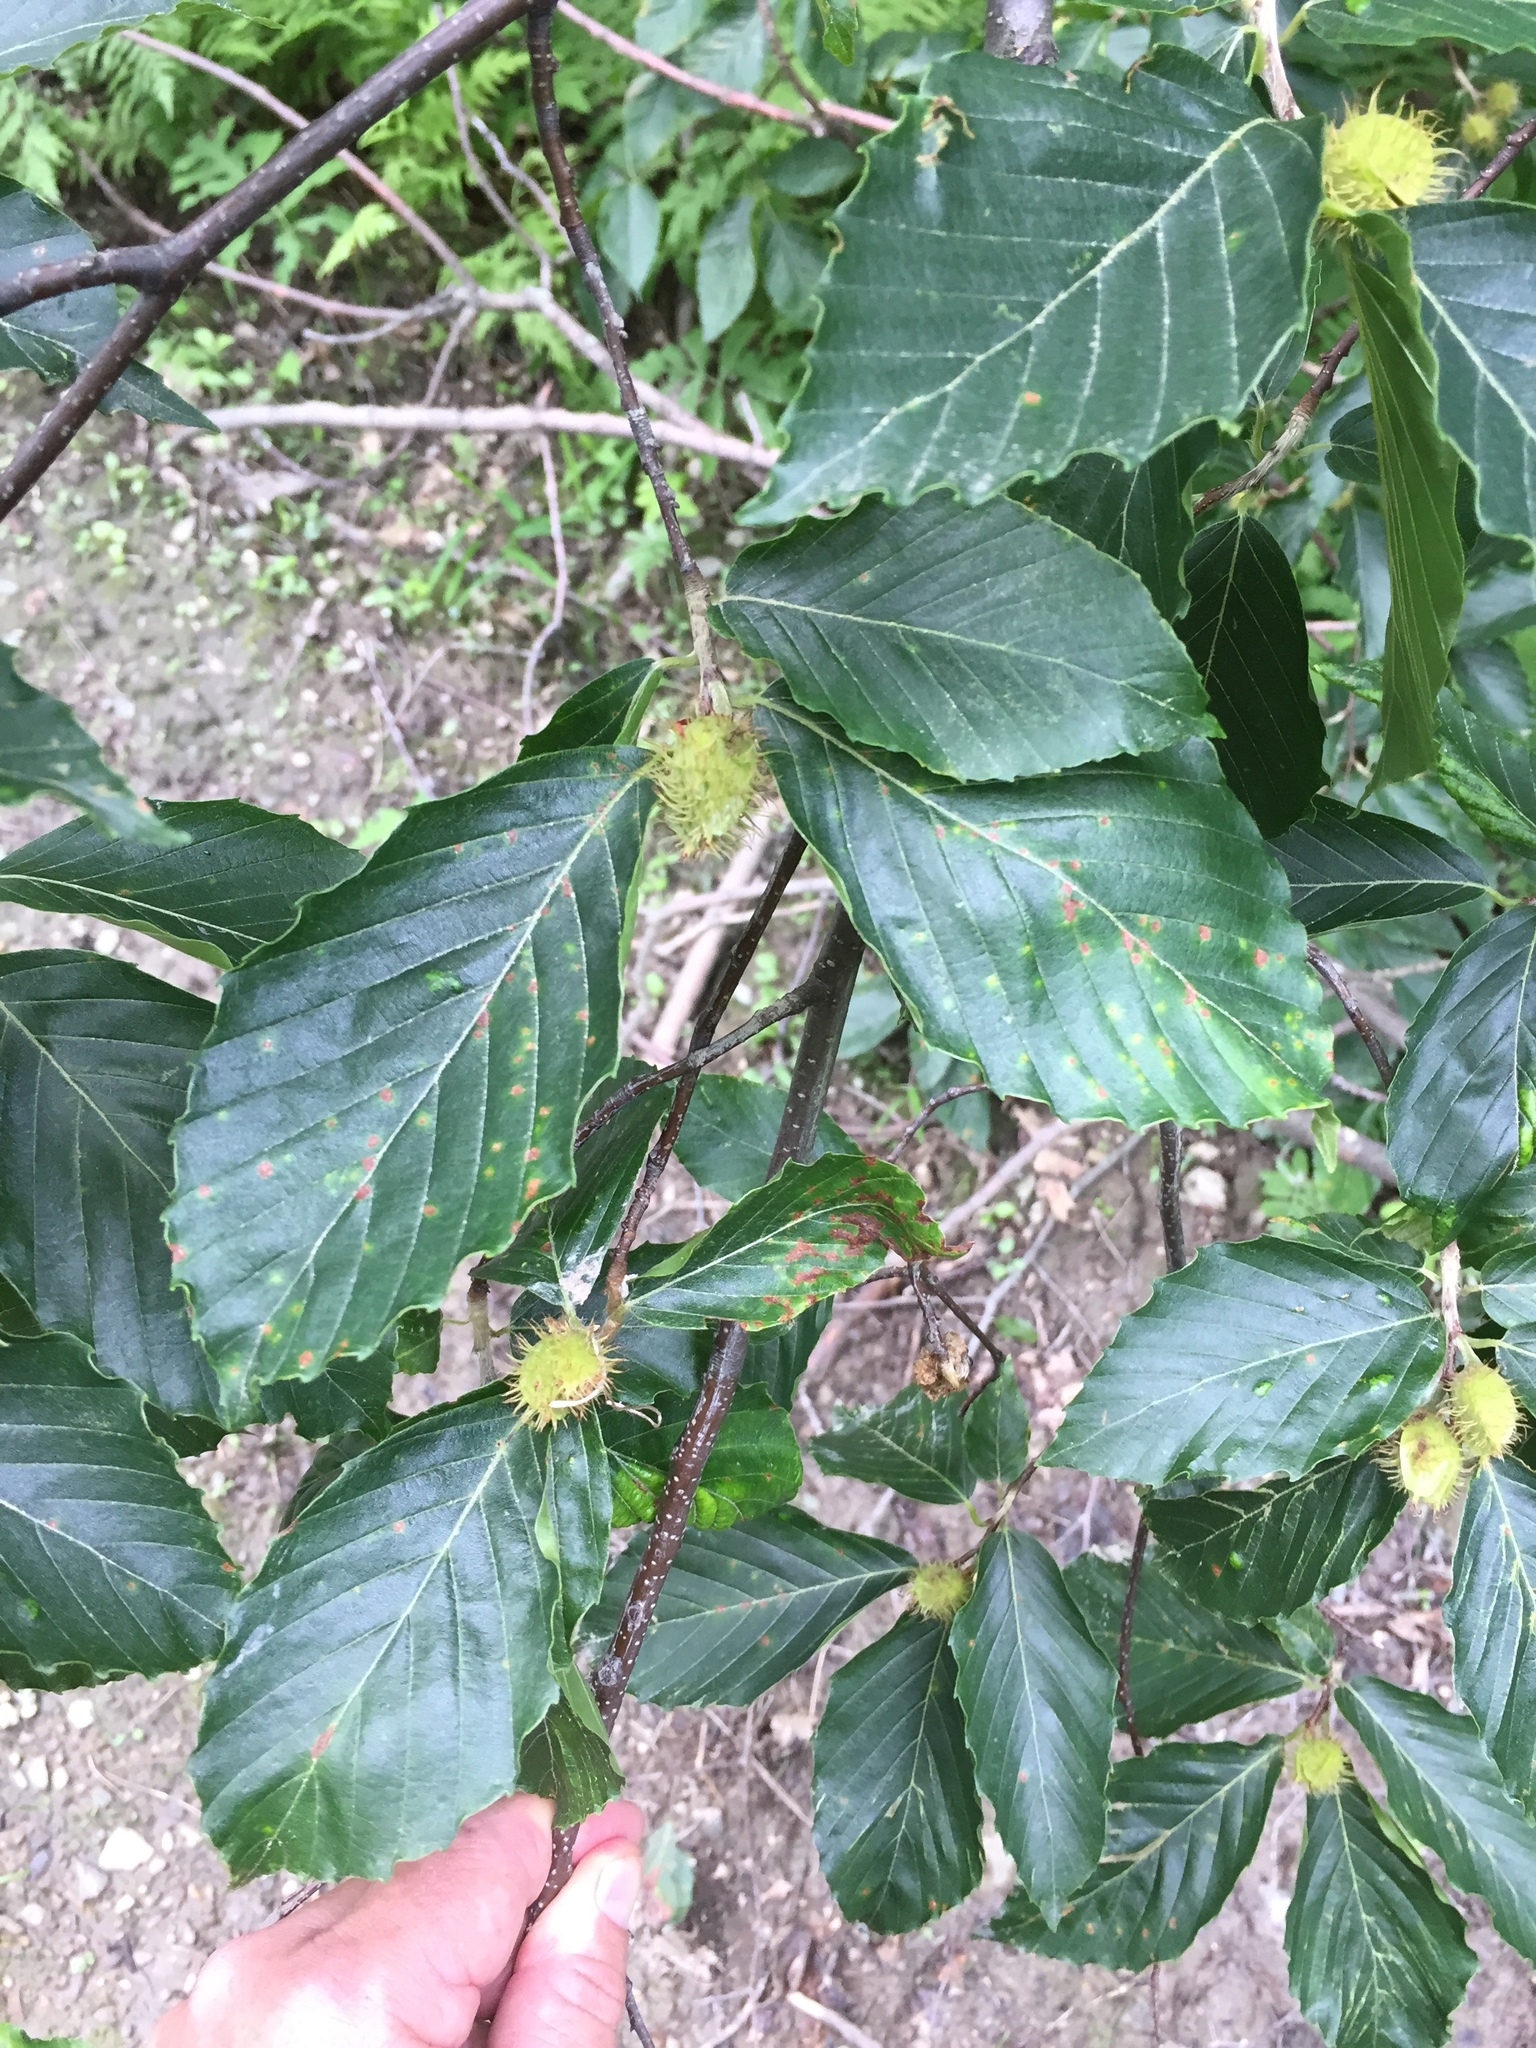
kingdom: Plantae
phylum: Tracheophyta
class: Magnoliopsida
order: Fagales
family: Fagaceae
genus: Fagus
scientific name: Fagus grandifolia
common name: American beech
